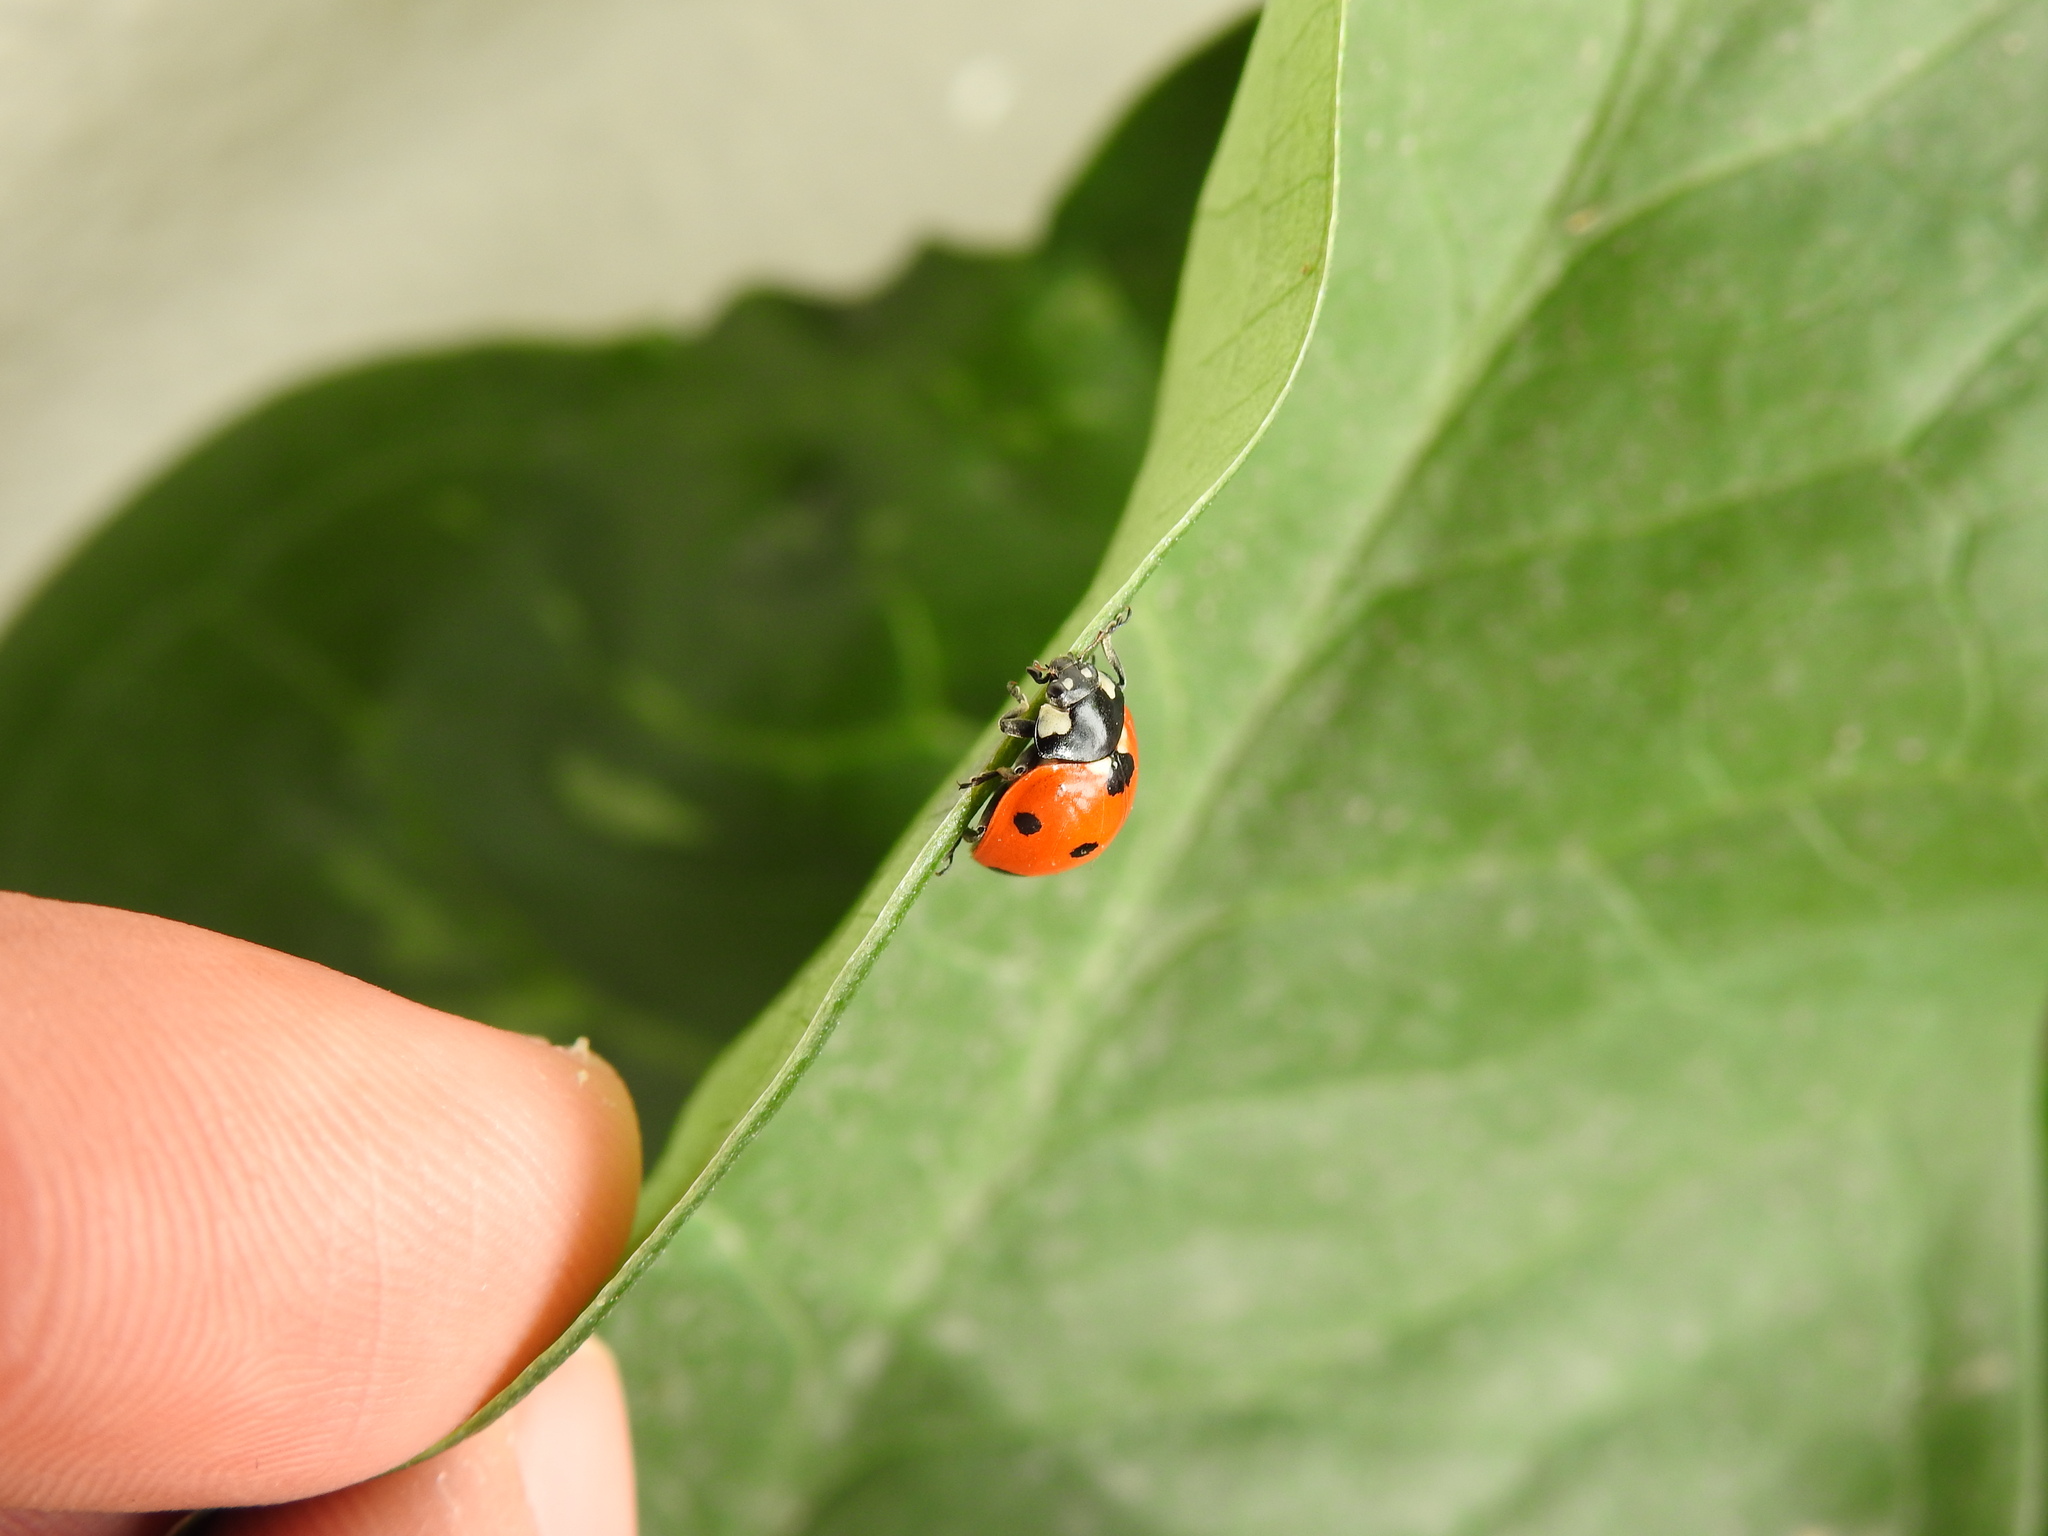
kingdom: Animalia
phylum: Arthropoda
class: Insecta
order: Coleoptera
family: Coccinellidae
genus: Coccinella
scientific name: Coccinella septempunctata
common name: Sevenspotted lady beetle
